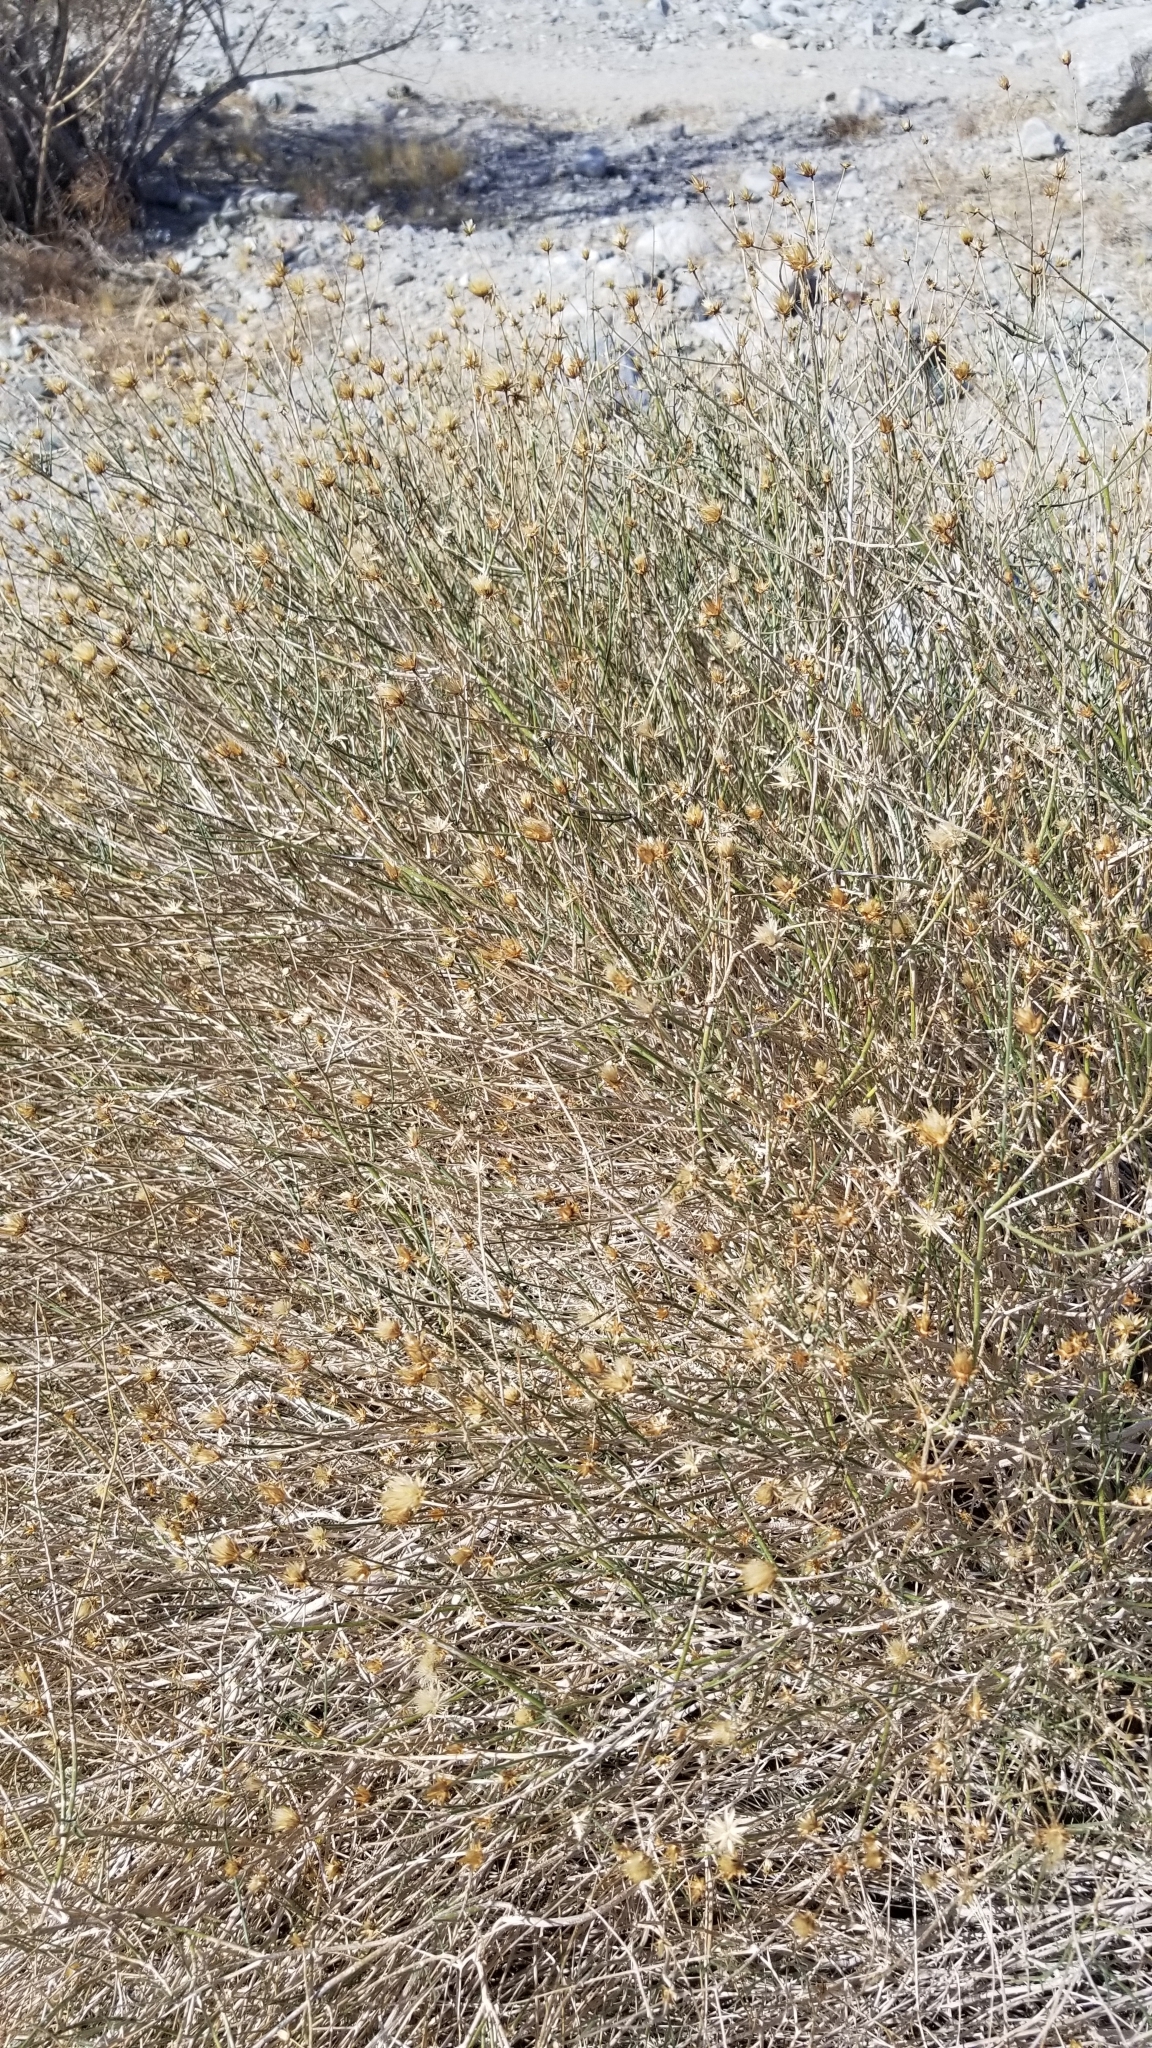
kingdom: Plantae
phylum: Tracheophyta
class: Magnoliopsida
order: Asterales
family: Asteraceae
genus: Bebbia
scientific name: Bebbia juncea
